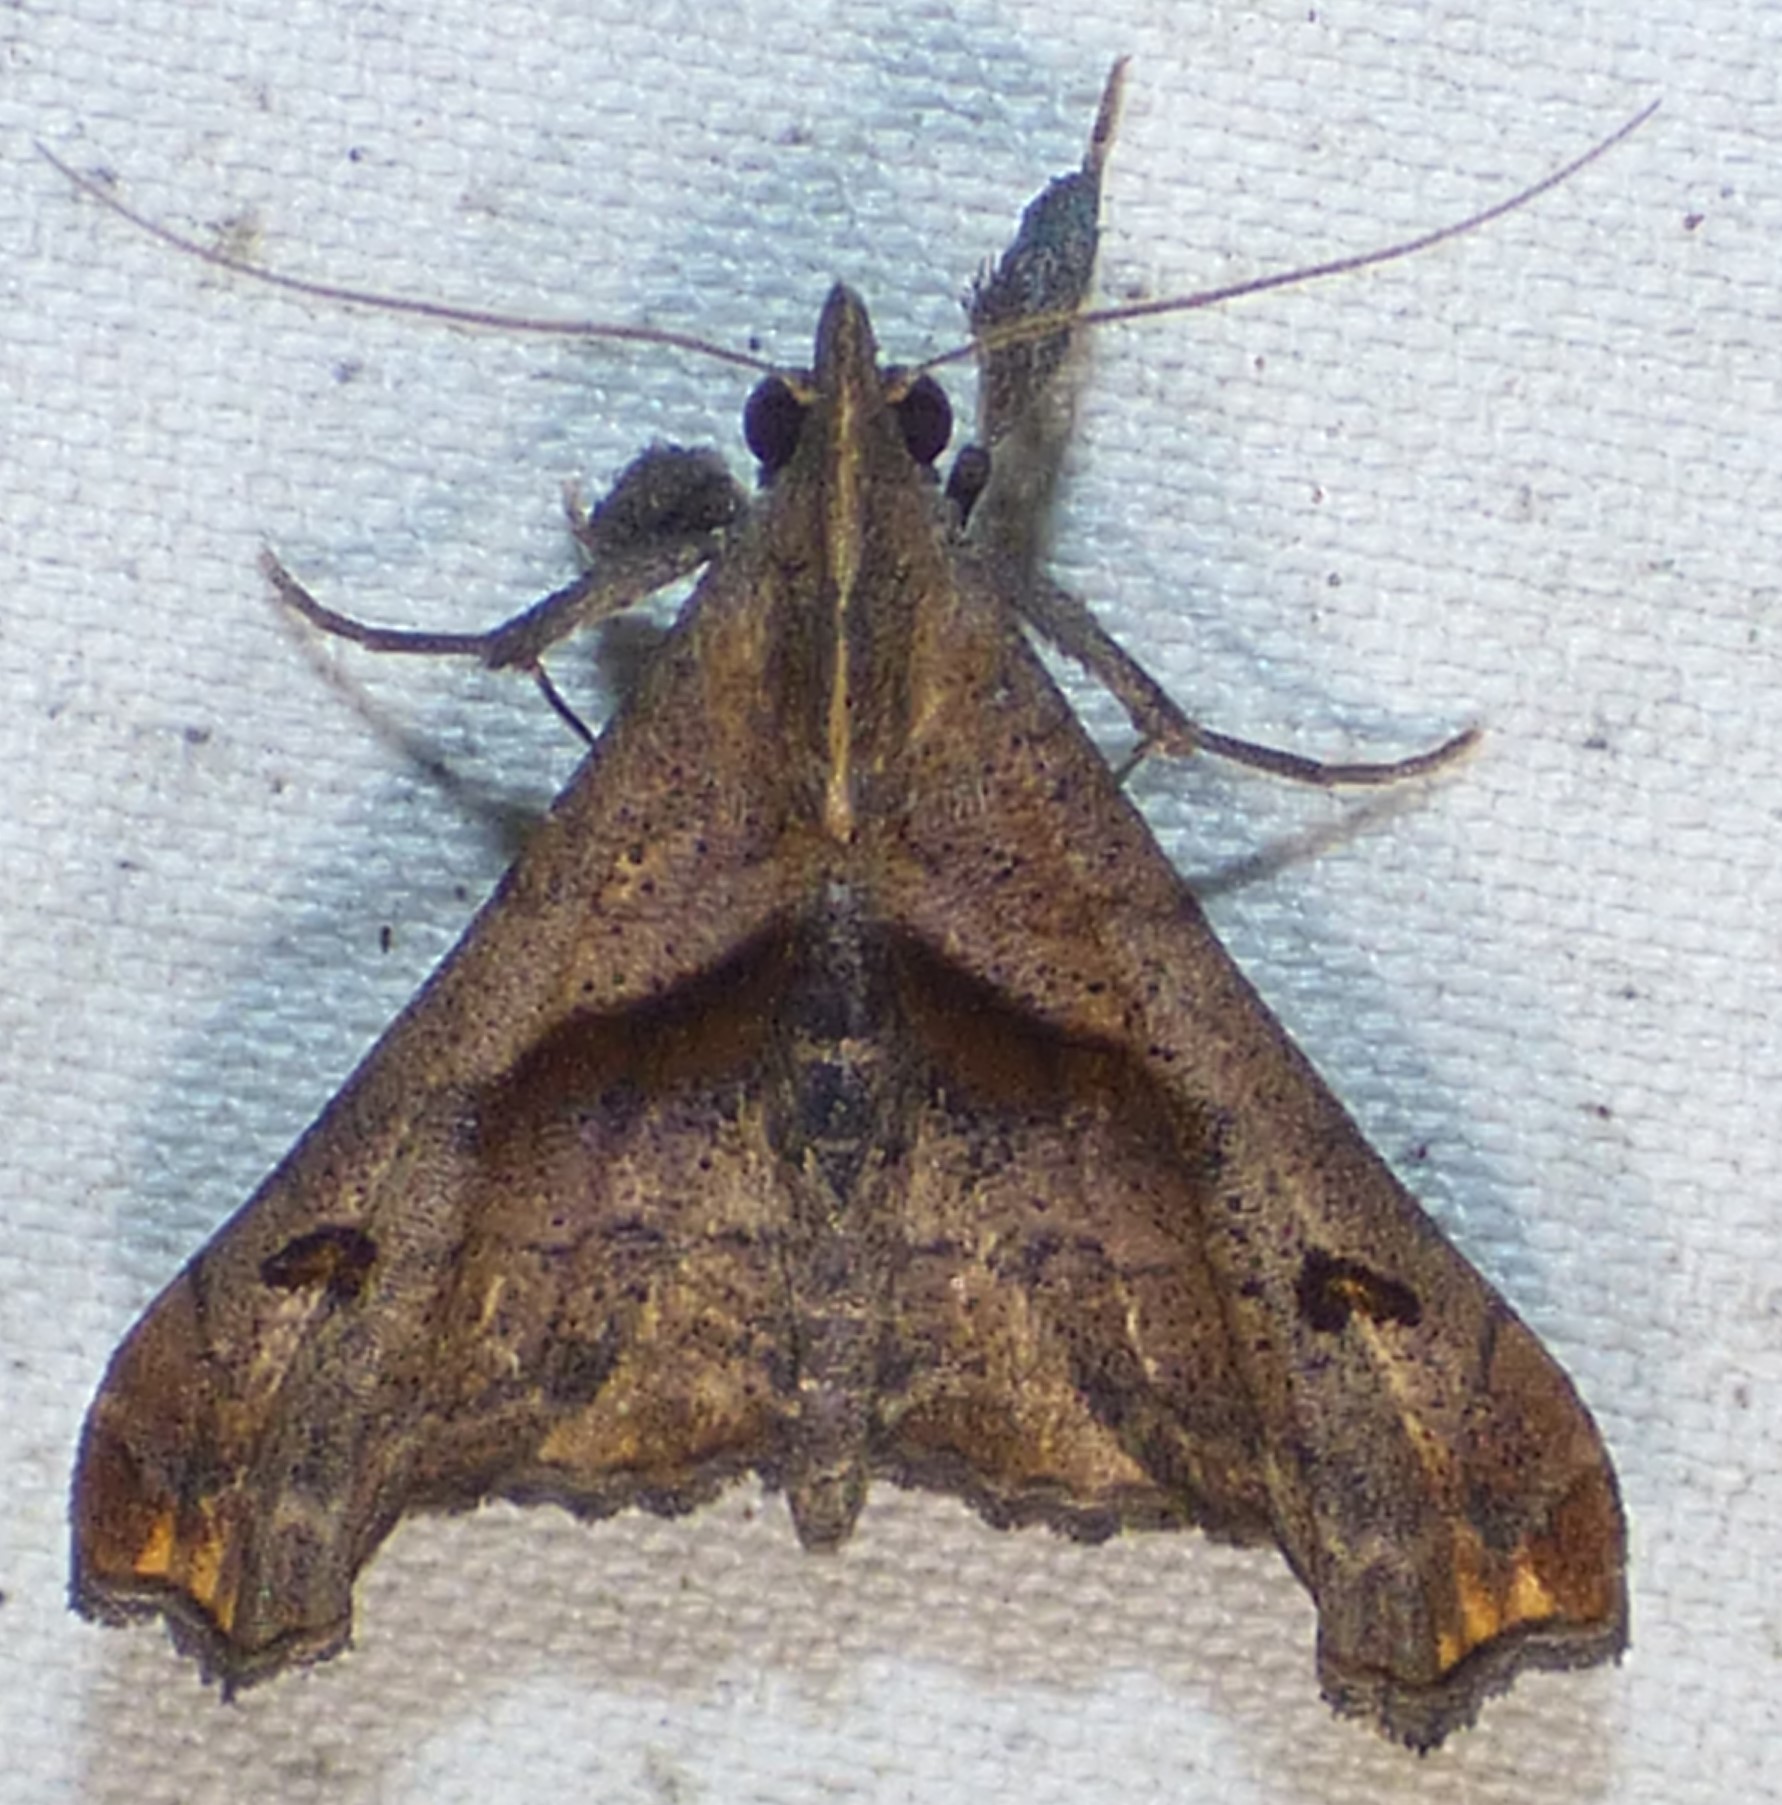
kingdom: Animalia
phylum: Arthropoda
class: Insecta
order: Lepidoptera
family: Erebidae
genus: Palthis
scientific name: Palthis angulalis
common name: Dark-spotted palthis moth
